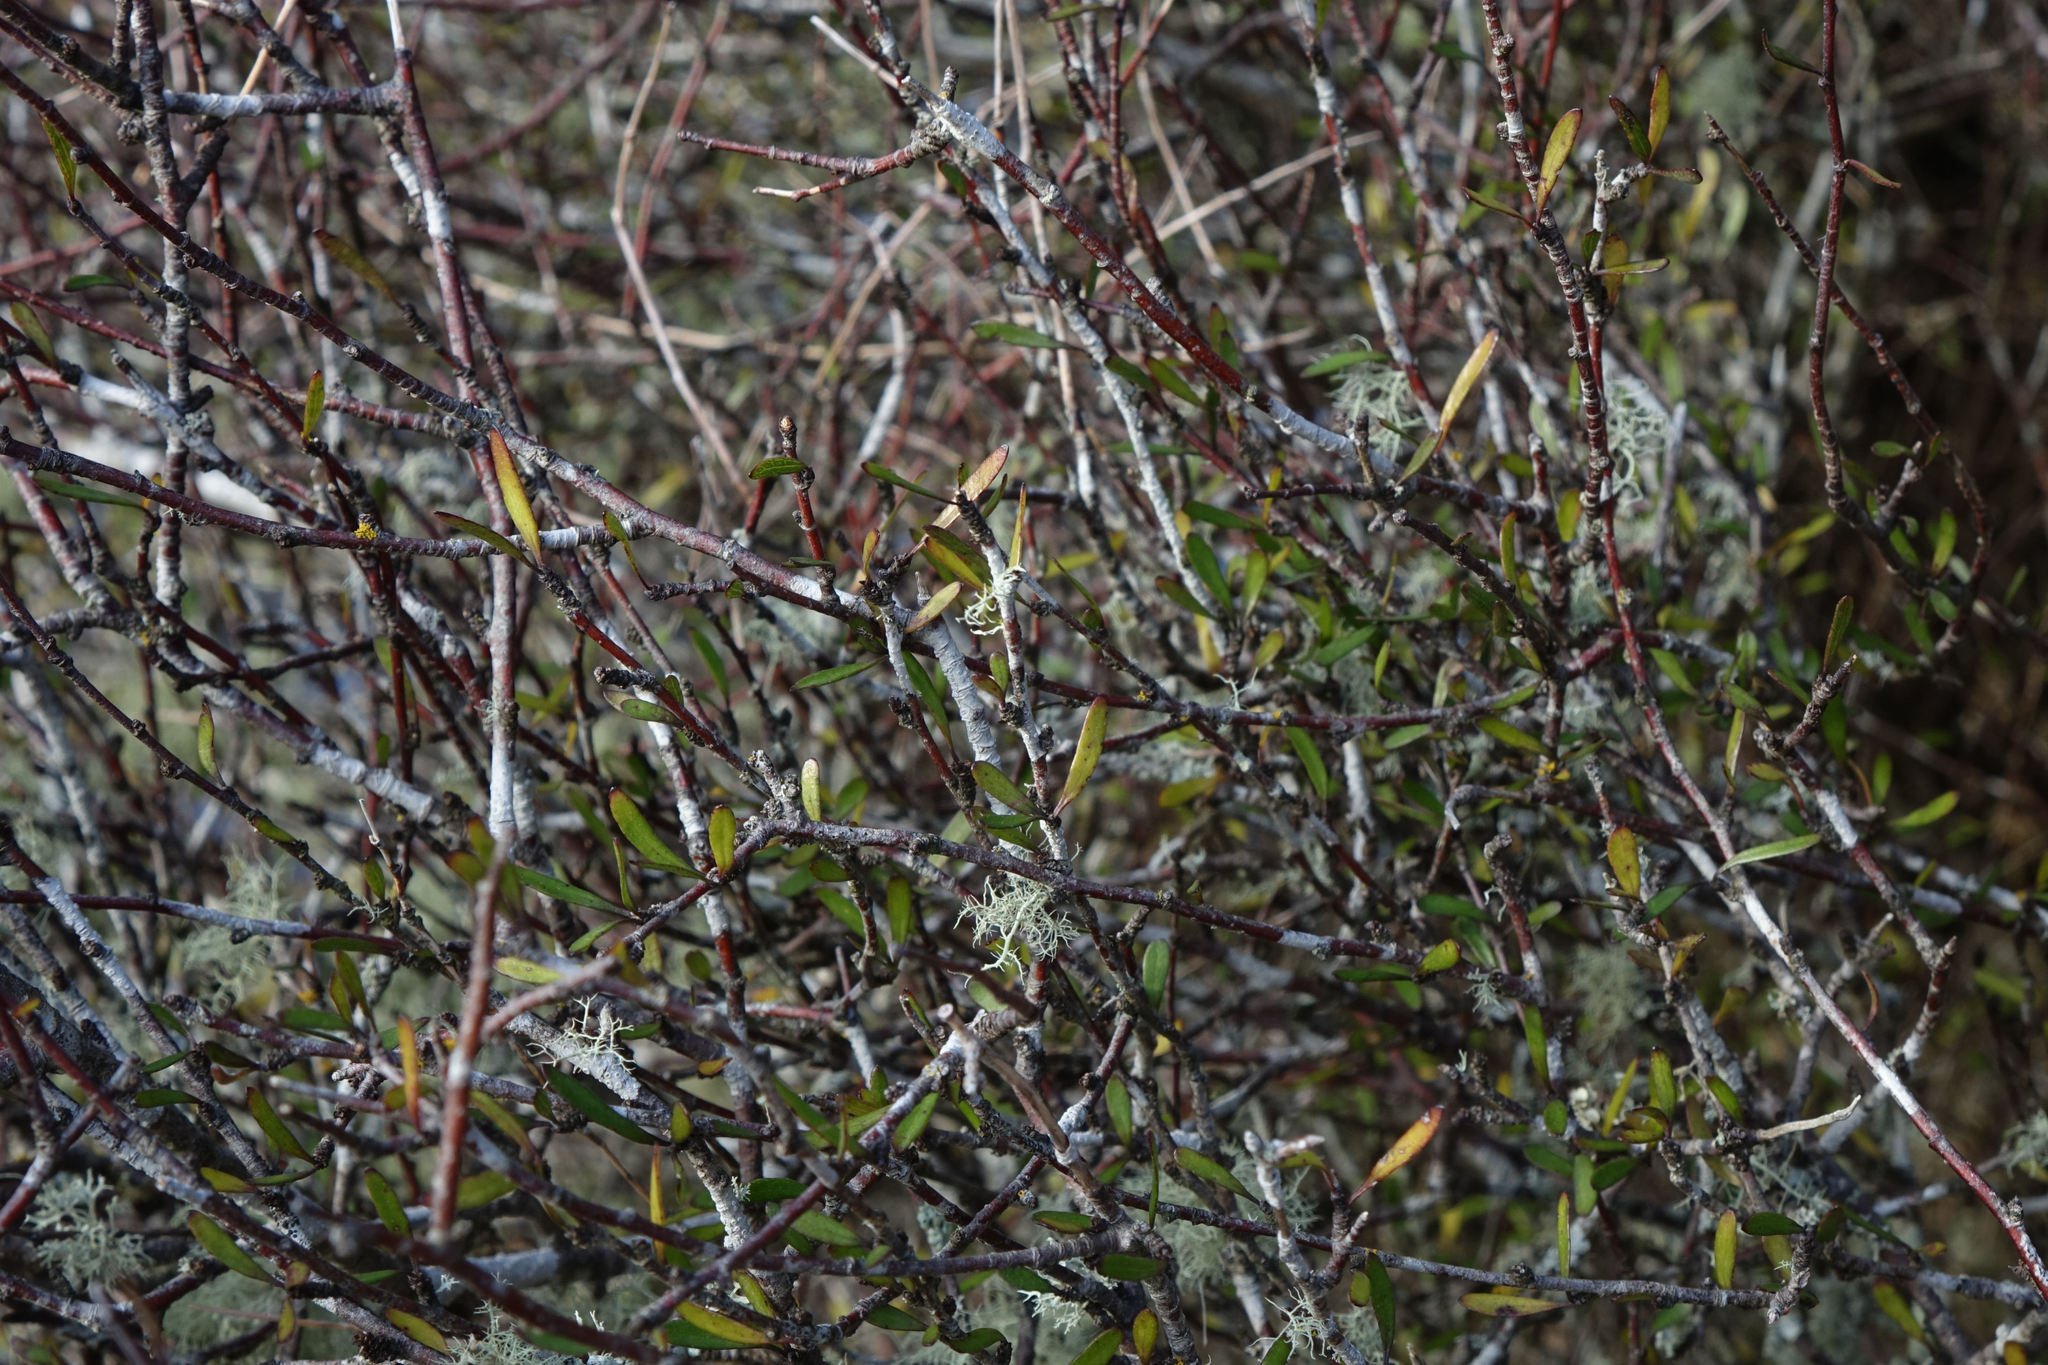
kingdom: Plantae
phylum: Tracheophyta
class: Magnoliopsida
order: Malvales
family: Malvaceae
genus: Plagianthus
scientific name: Plagianthus divaricatus
